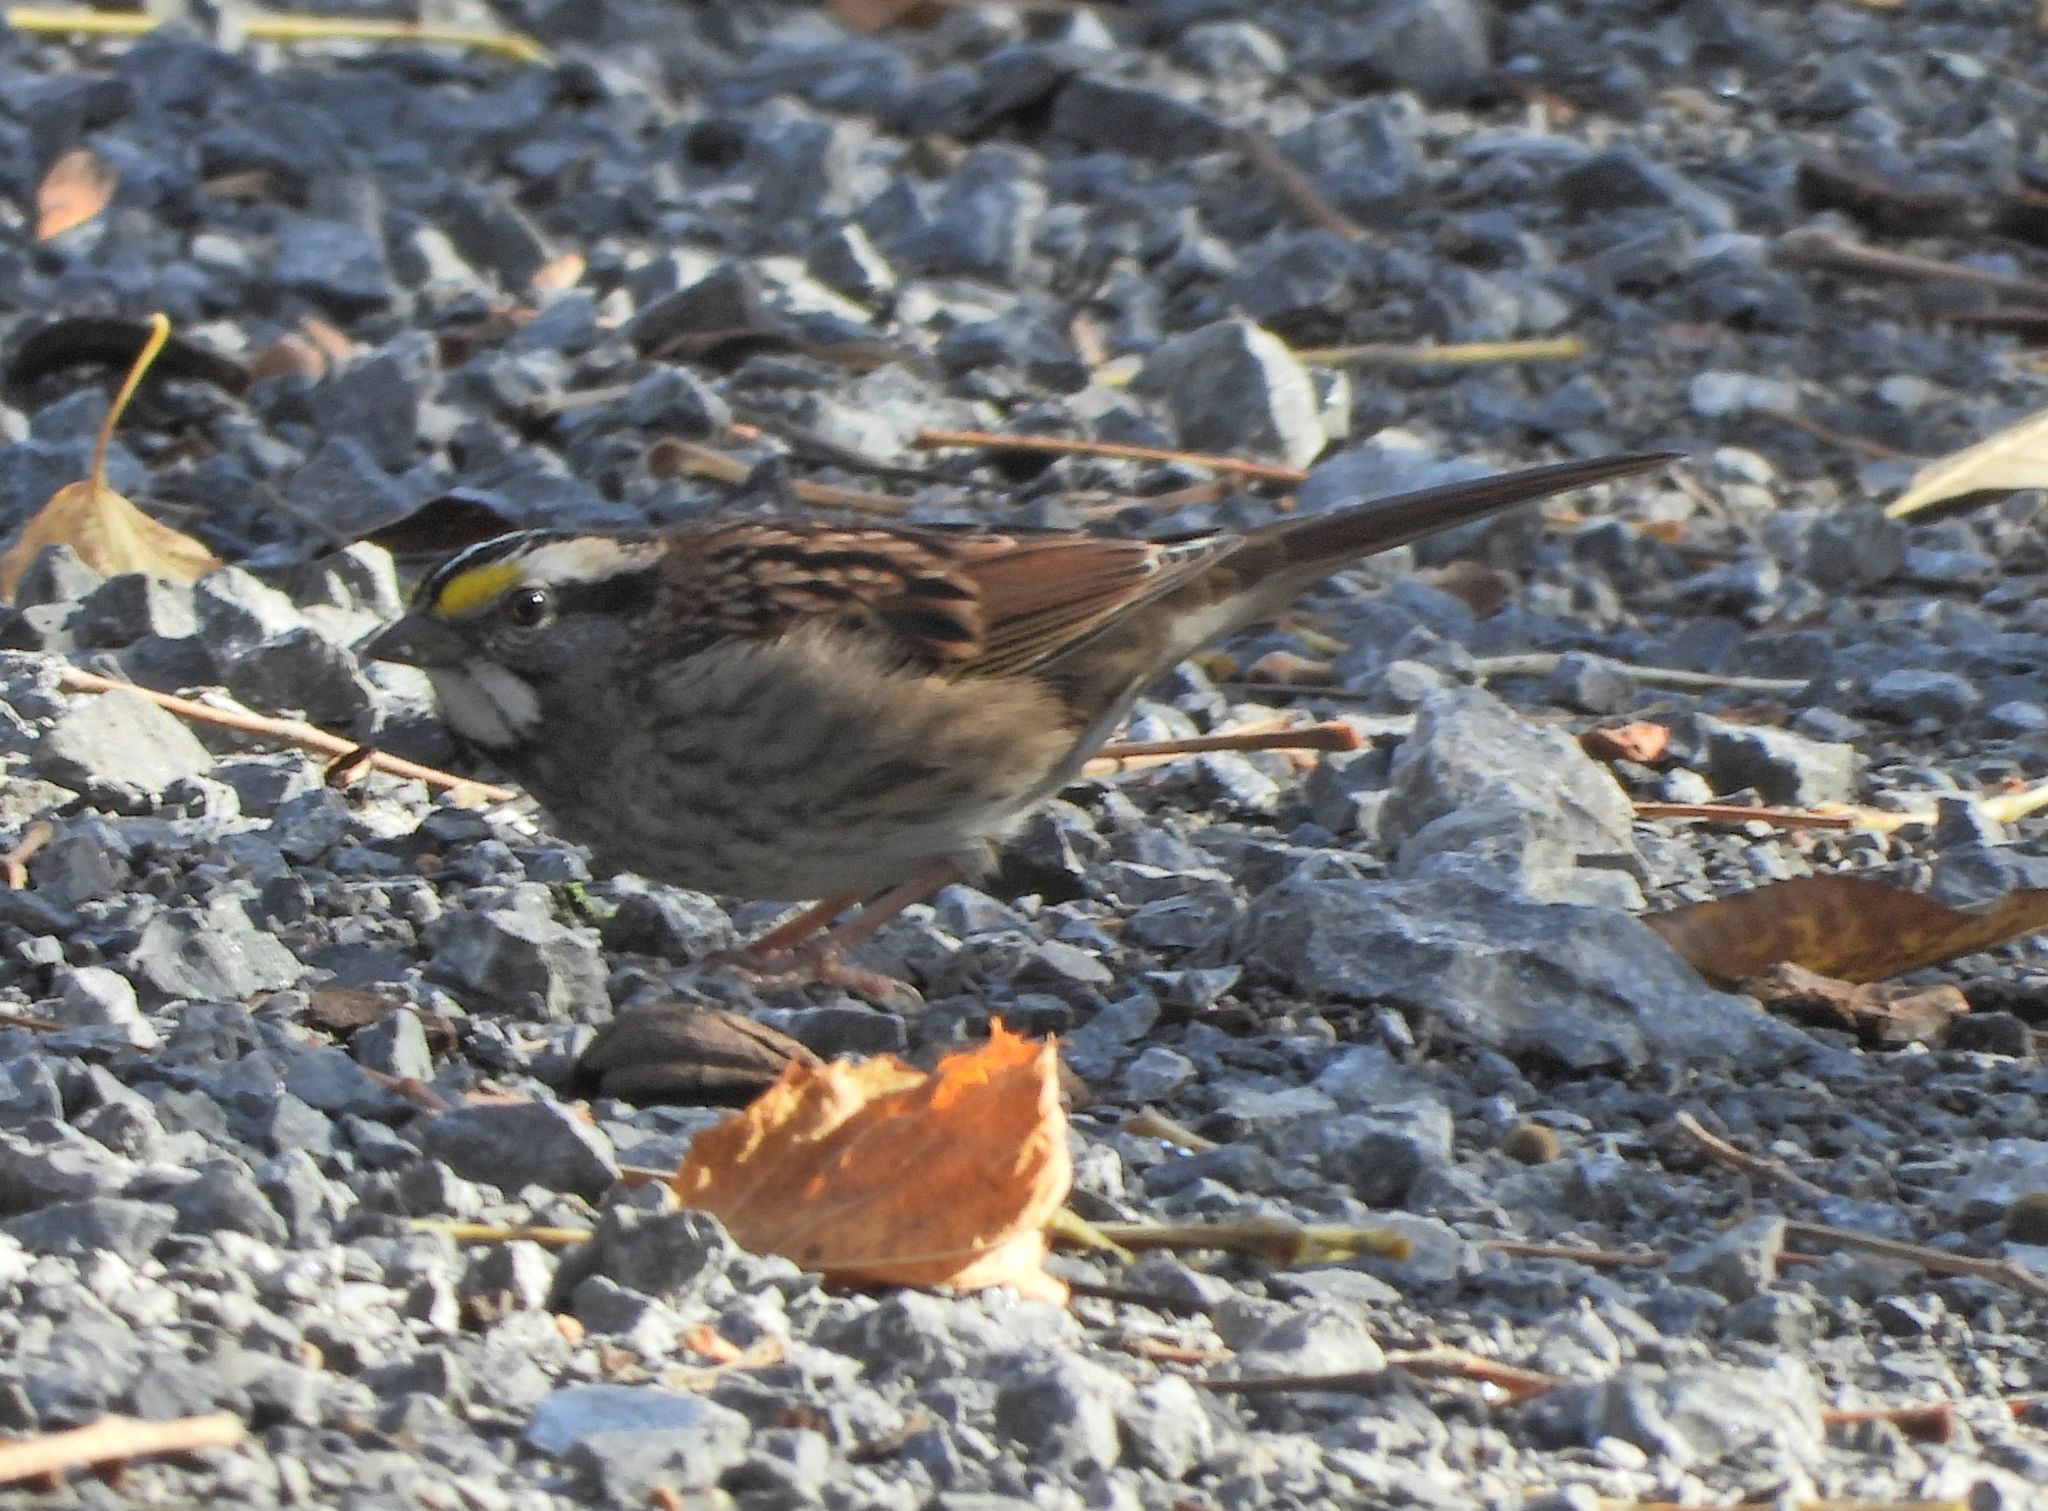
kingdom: Animalia
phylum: Chordata
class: Aves
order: Passeriformes
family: Passerellidae
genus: Zonotrichia
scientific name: Zonotrichia albicollis
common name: White-throated sparrow
